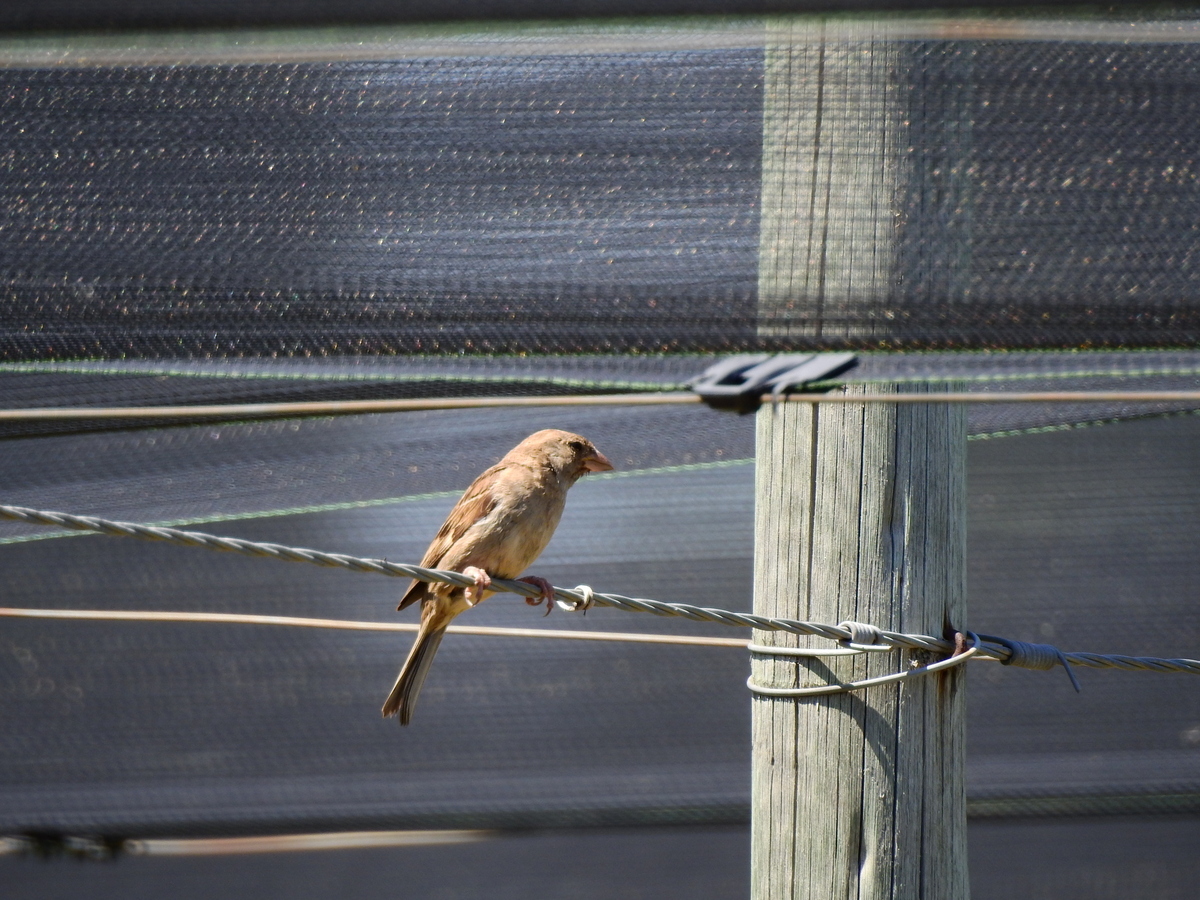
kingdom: Animalia
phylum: Chordata
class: Aves
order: Passeriformes
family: Passeridae
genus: Passer
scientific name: Passer domesticus
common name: House sparrow
